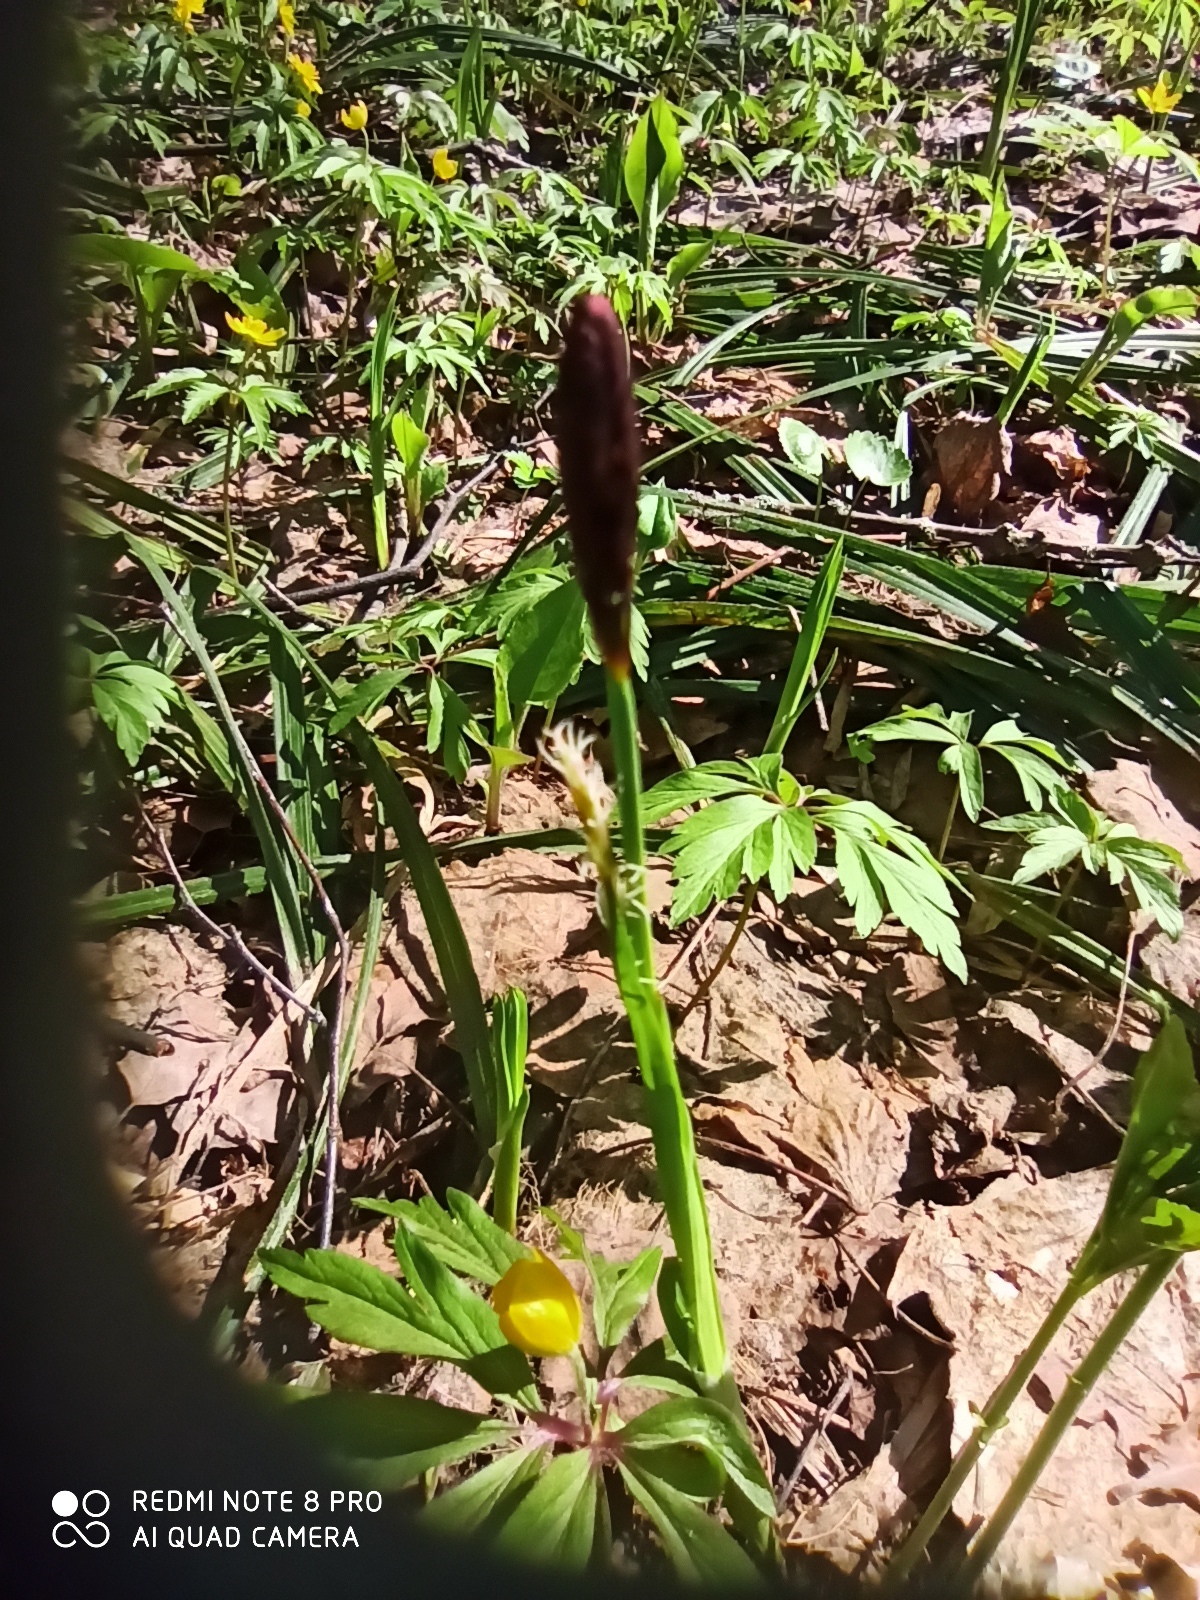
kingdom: Plantae
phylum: Tracheophyta
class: Liliopsida
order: Poales
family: Cyperaceae
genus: Carex
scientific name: Carex pilosa
